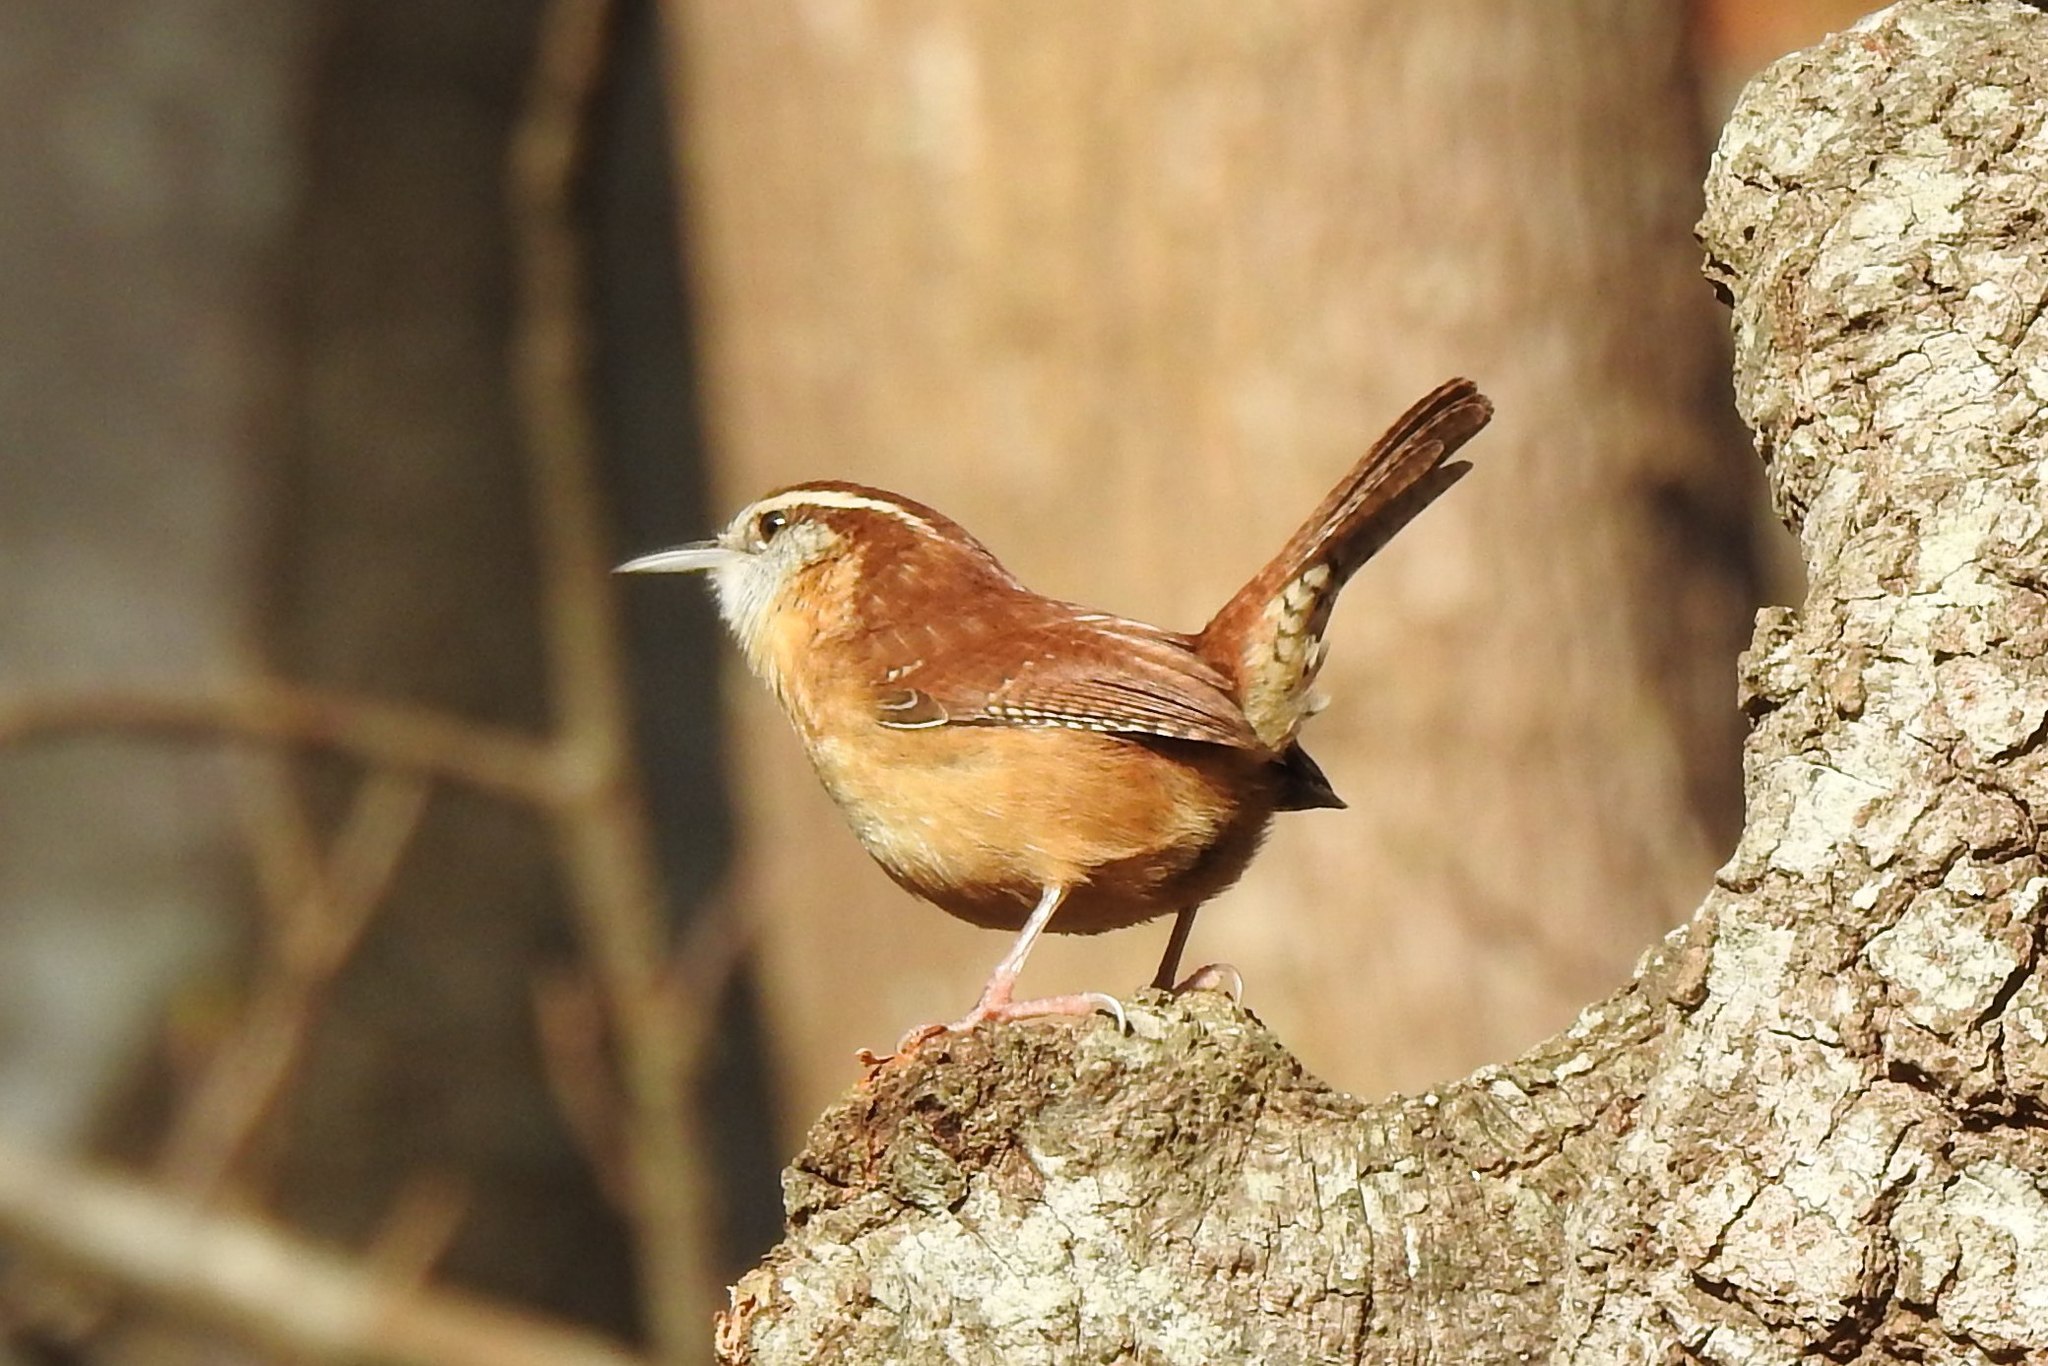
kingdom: Animalia
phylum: Chordata
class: Aves
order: Passeriformes
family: Troglodytidae
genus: Thryothorus
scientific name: Thryothorus ludovicianus
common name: Carolina wren
